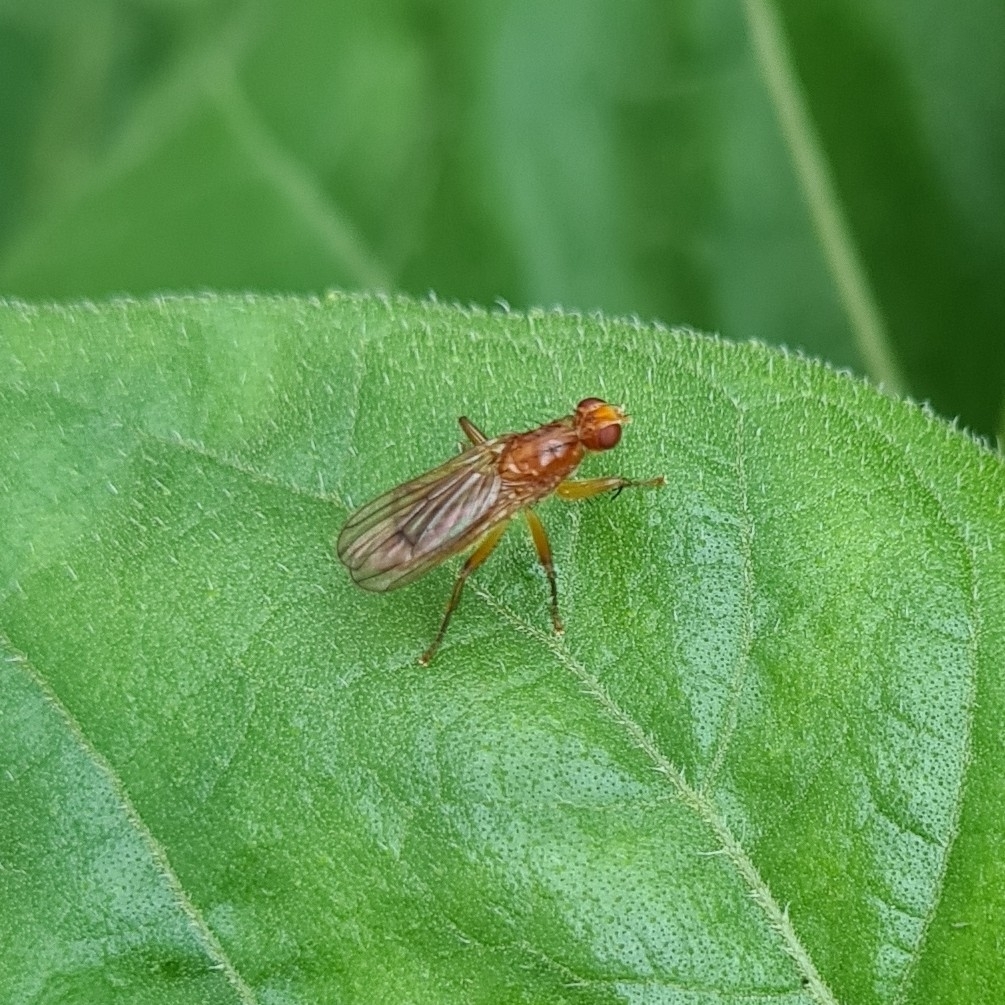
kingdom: Animalia
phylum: Arthropoda
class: Insecta
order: Diptera
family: Scathophagidae
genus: Norellisoma
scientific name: Norellisoma spinimanum
